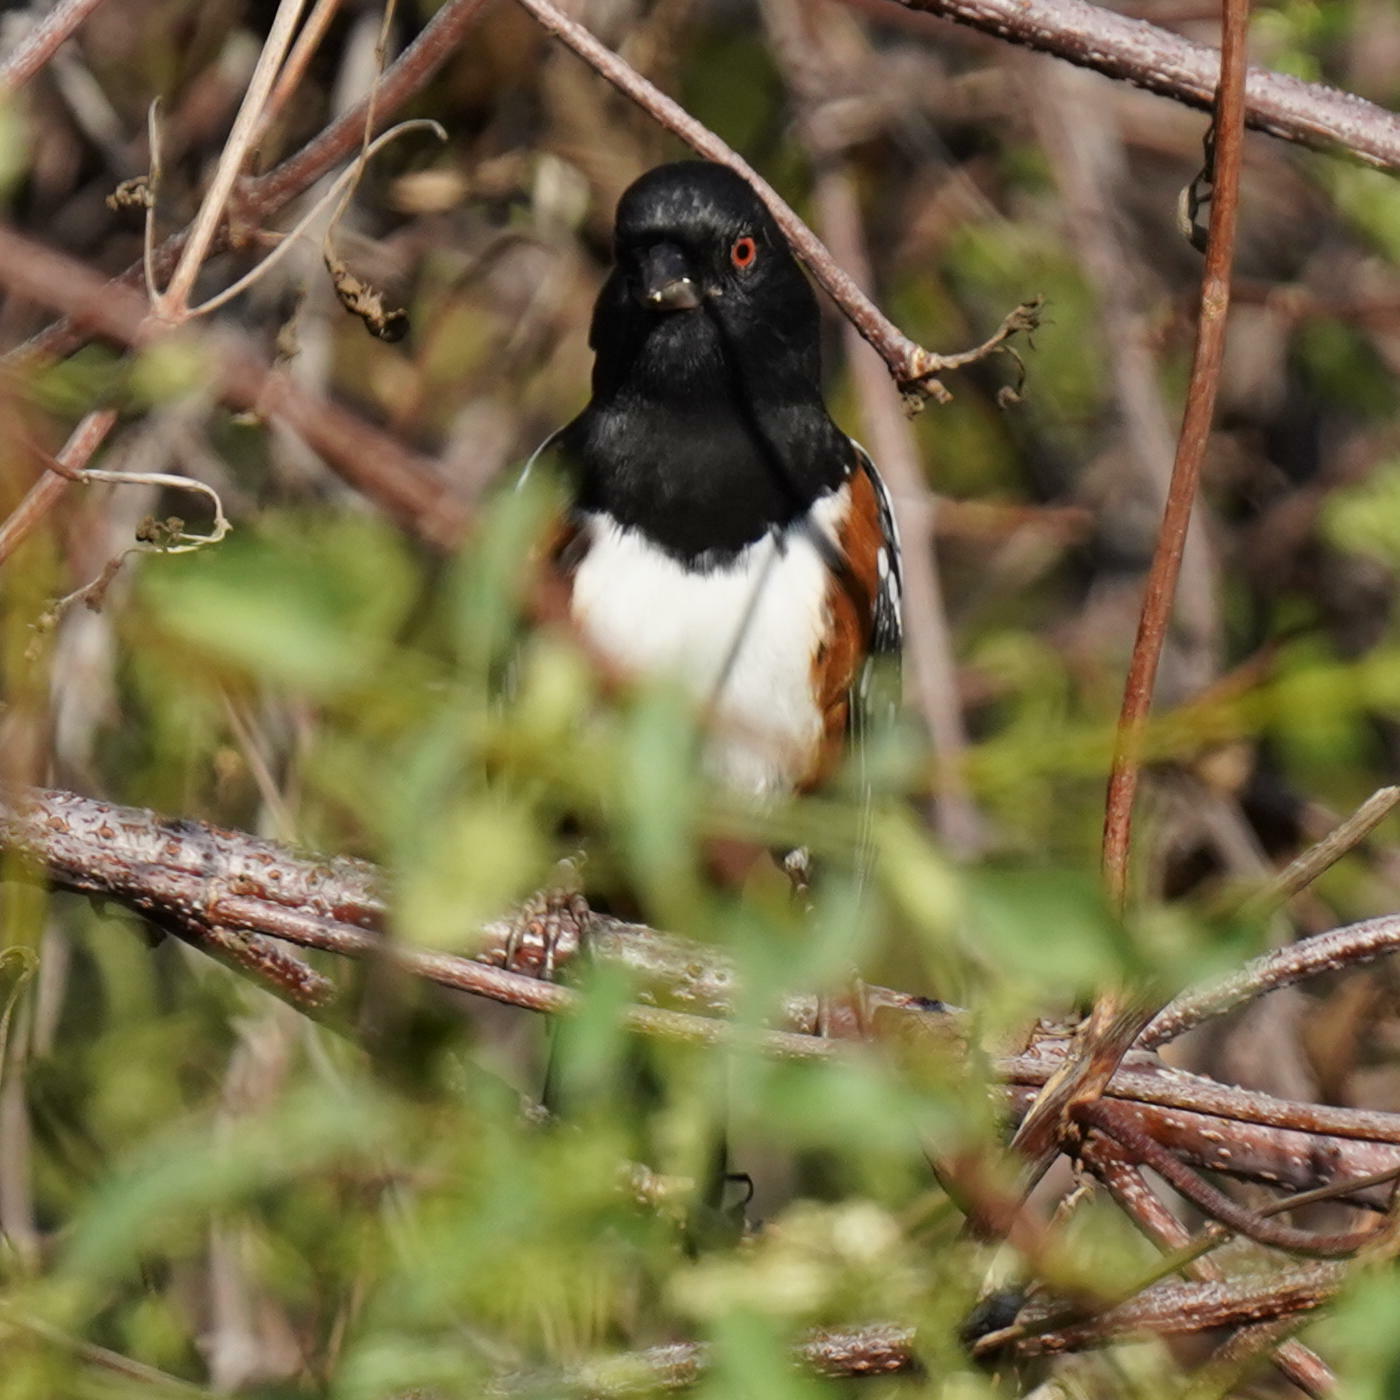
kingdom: Animalia
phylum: Chordata
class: Aves
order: Passeriformes
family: Passerellidae
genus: Pipilo
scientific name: Pipilo maculatus
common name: Spotted towhee
